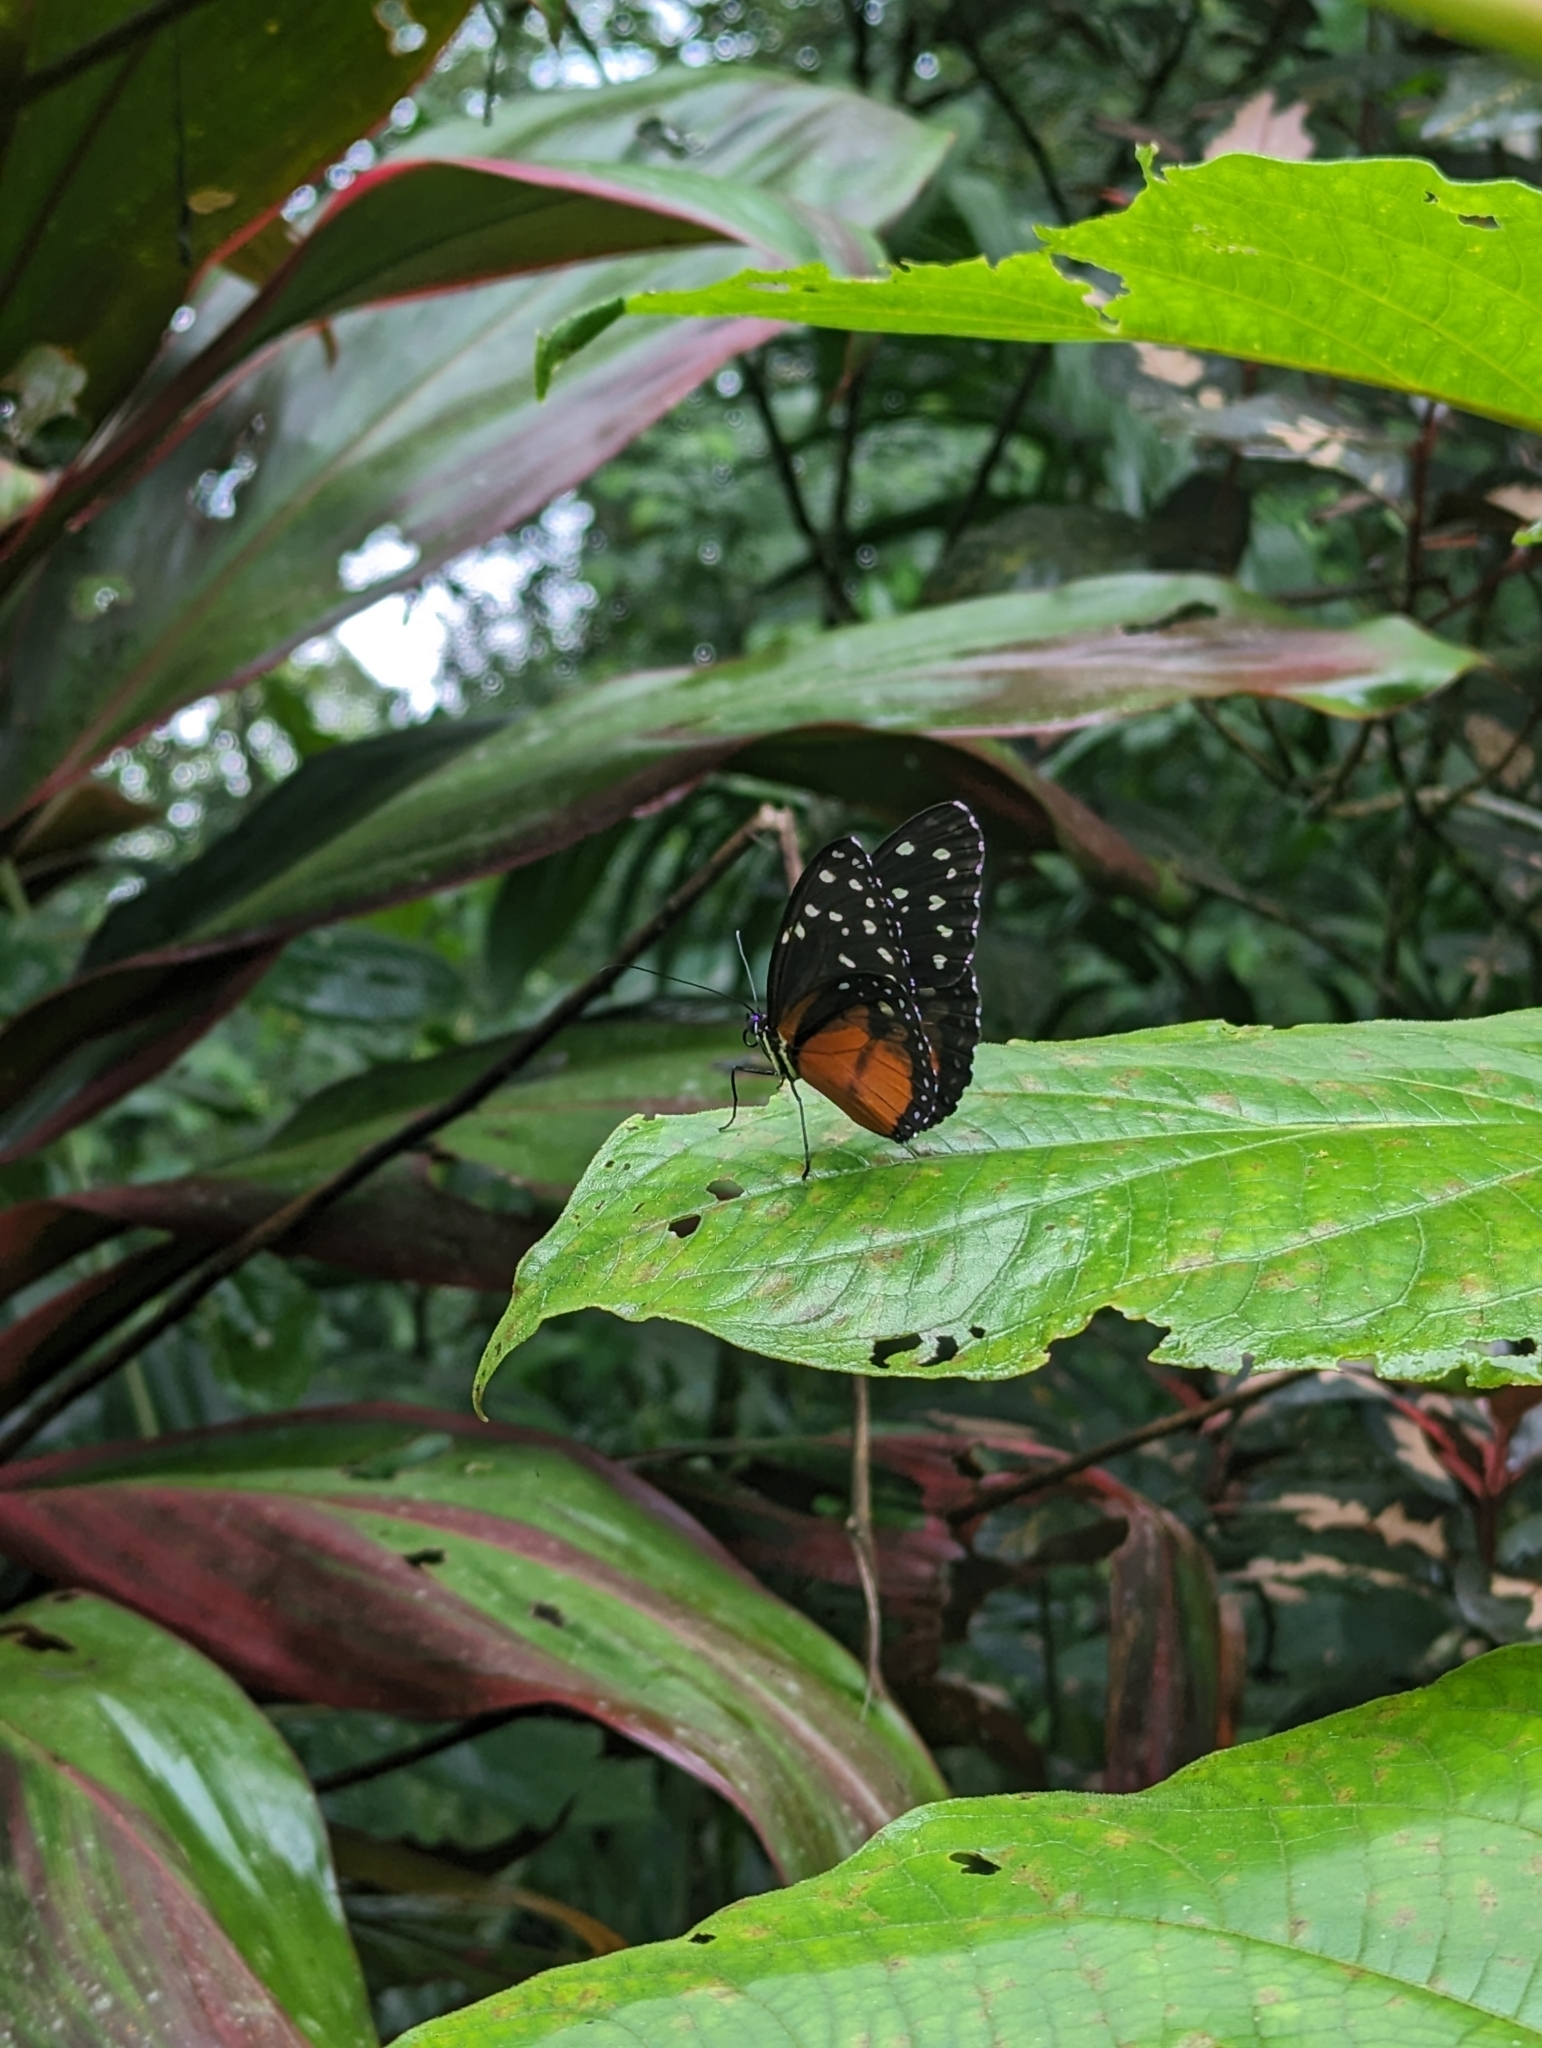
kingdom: Animalia
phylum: Arthropoda
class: Insecta
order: Lepidoptera
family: Nymphalidae
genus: Tithorea
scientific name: Tithorea tarricina
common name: Cream-spotted tigerwing
